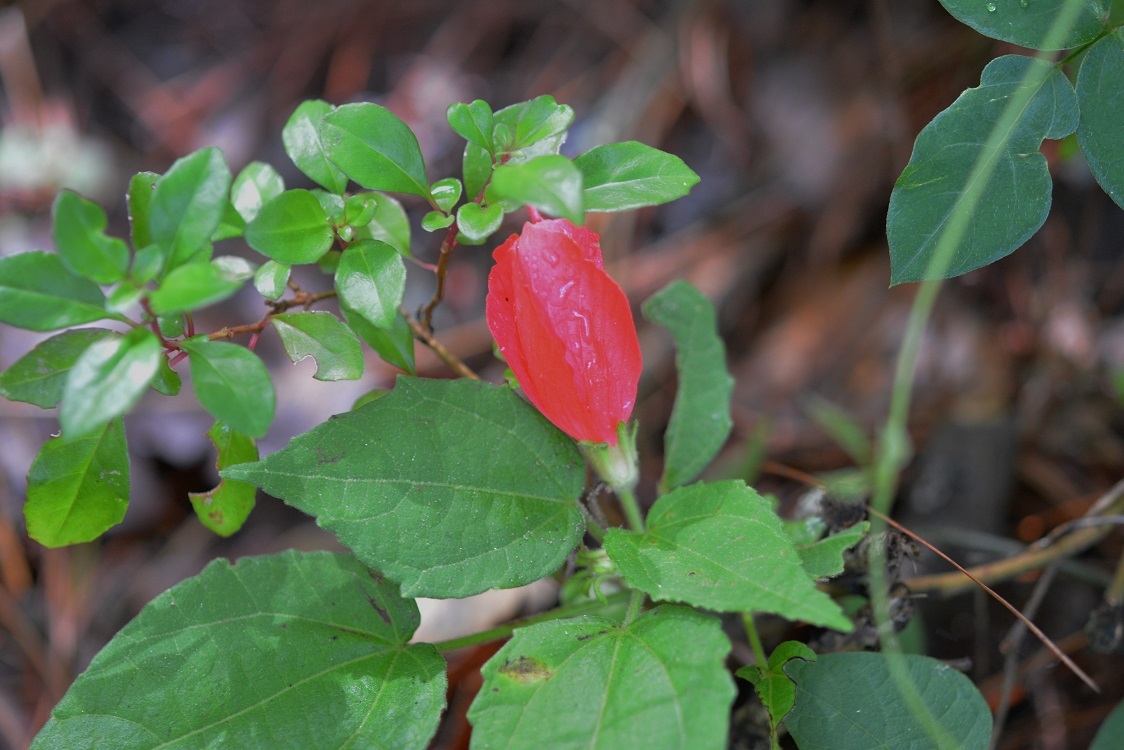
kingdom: Plantae
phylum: Tracheophyta
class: Magnoliopsida
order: Malvales
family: Malvaceae
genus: Malvaviscus
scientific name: Malvaviscus arboreus
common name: Wax mallow
